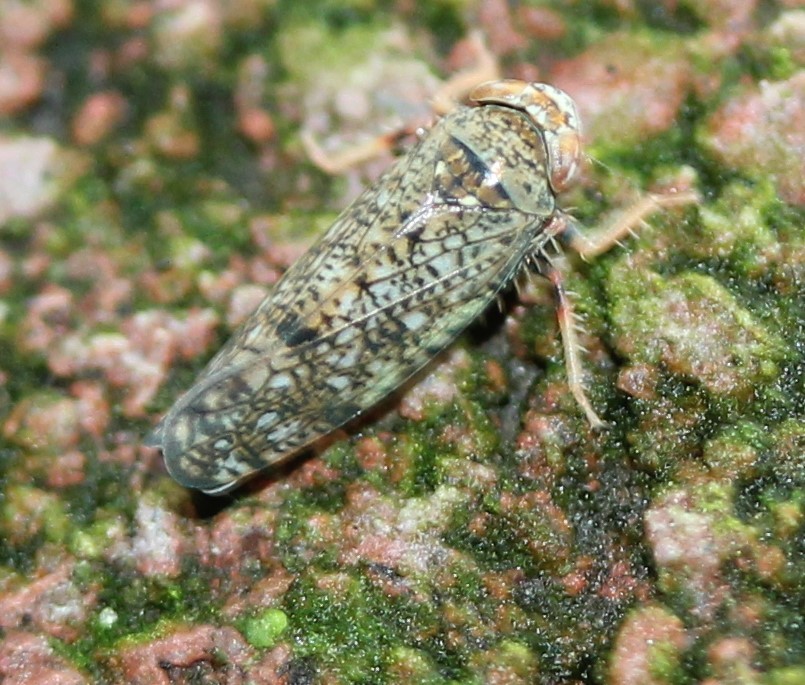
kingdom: Animalia
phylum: Arthropoda
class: Insecta
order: Hemiptera
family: Cicadellidae
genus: Orientus
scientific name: Orientus ishidae
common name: Japanese leafhopper
